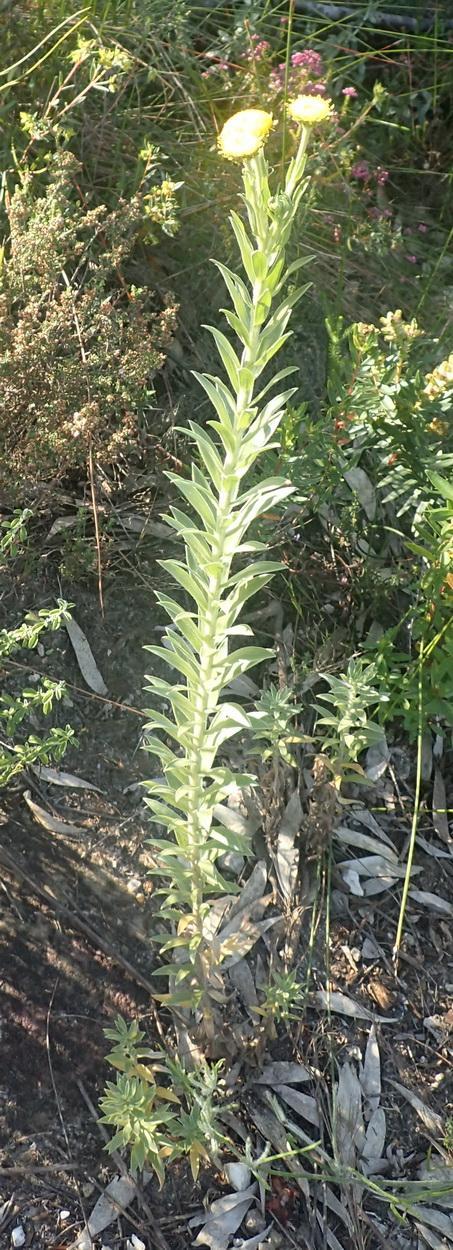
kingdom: Plantae
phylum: Tracheophyta
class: Magnoliopsida
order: Asterales
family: Asteraceae
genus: Schistostephium
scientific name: Schistostephium umbellatum
